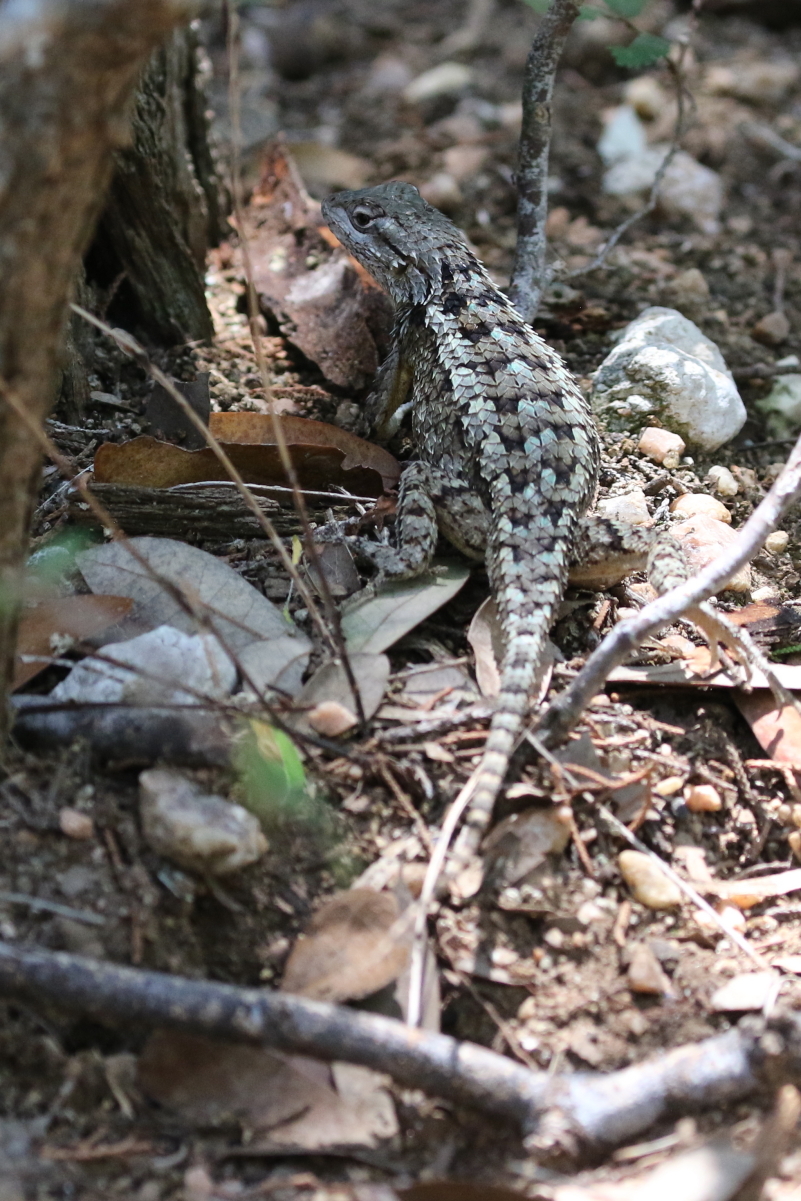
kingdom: Animalia
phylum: Chordata
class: Squamata
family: Phrynosomatidae
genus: Sceloporus
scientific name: Sceloporus olivaceus
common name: Texas spiny lizard
